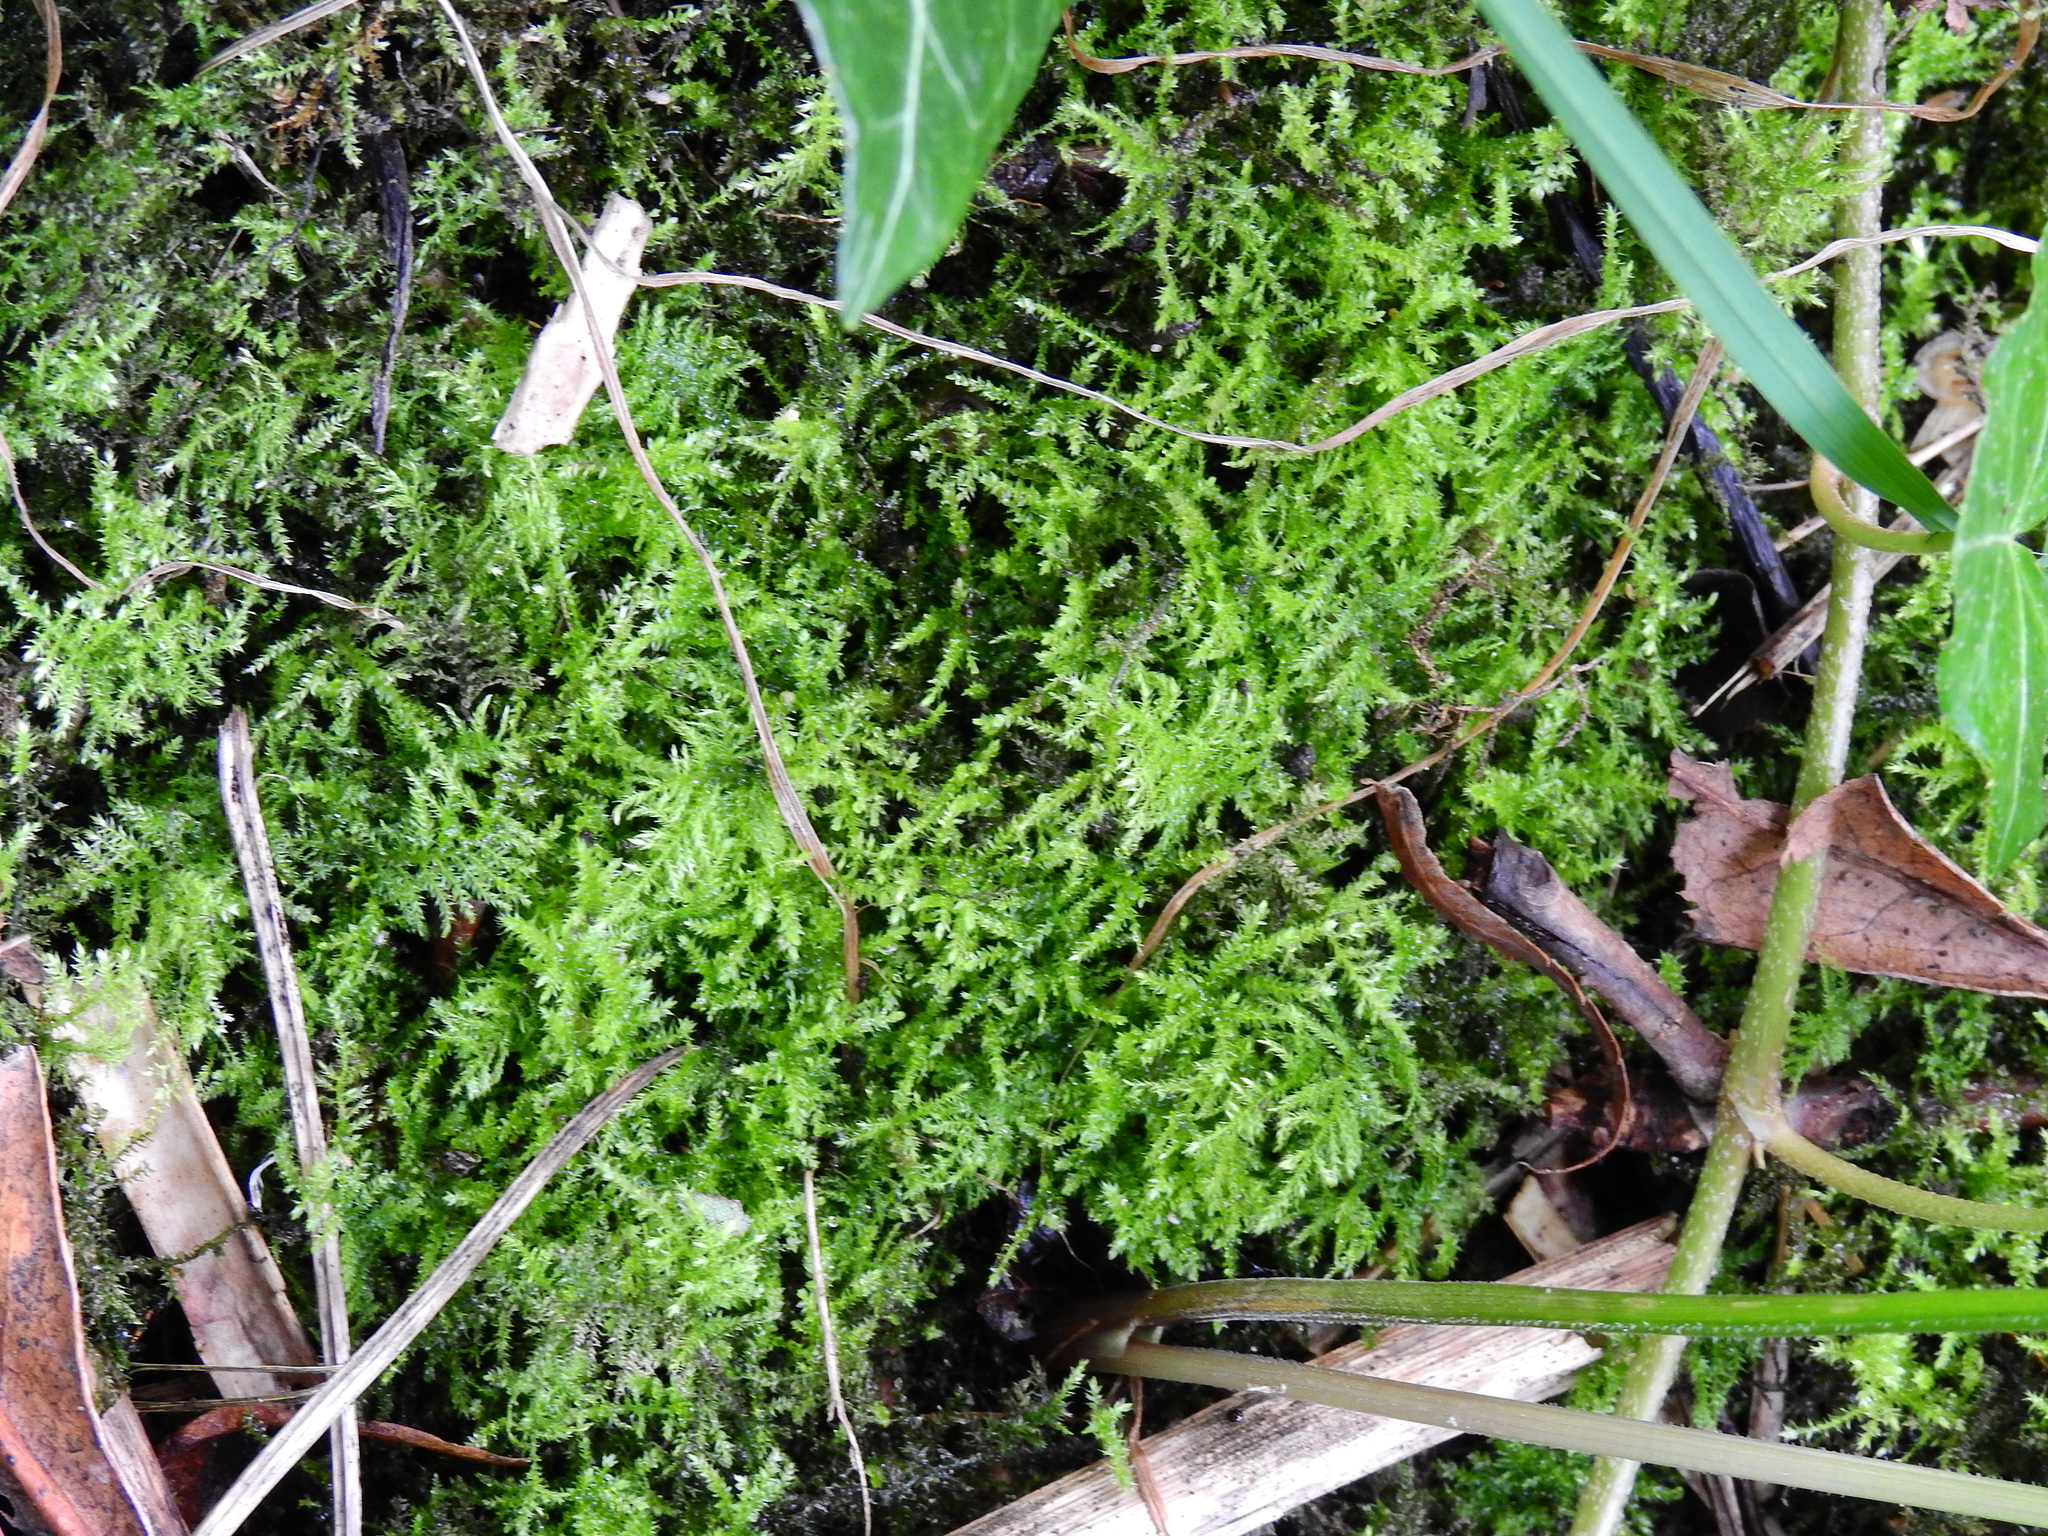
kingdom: Plantae
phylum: Bryophyta
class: Bryopsida
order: Hypnales
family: Brachytheciaceae
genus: Kindbergia
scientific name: Kindbergia praelonga
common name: Slender beaked moss
